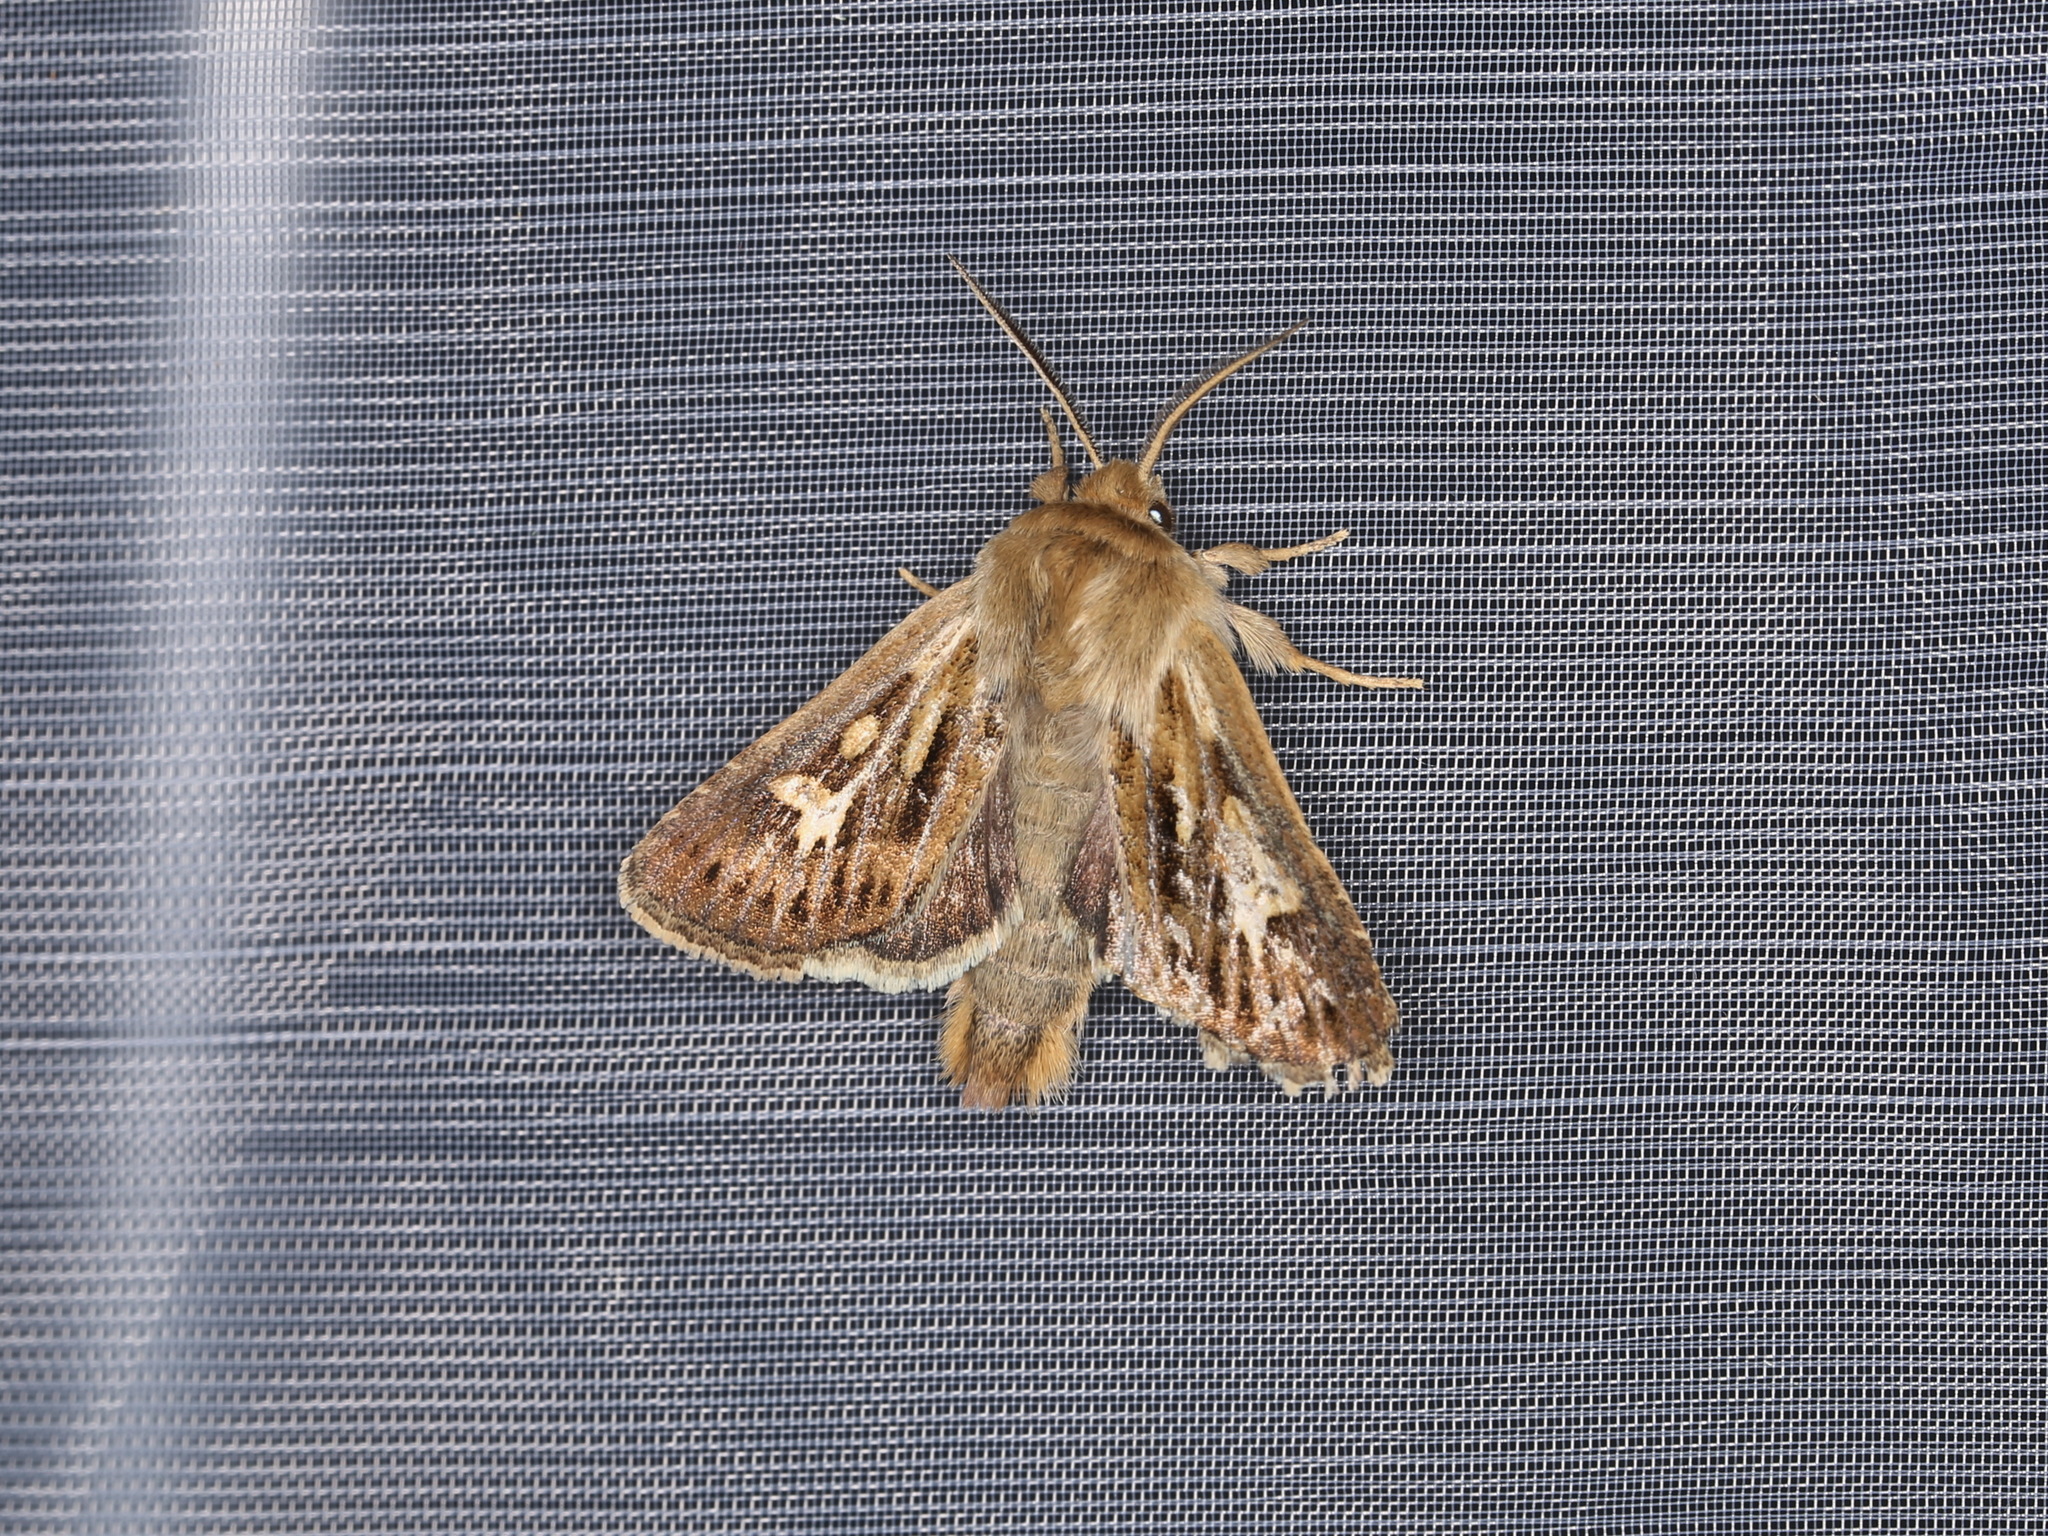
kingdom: Animalia
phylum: Arthropoda
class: Insecta
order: Lepidoptera
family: Noctuidae
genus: Cerapteryx
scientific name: Cerapteryx graminis
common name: Antler moth
